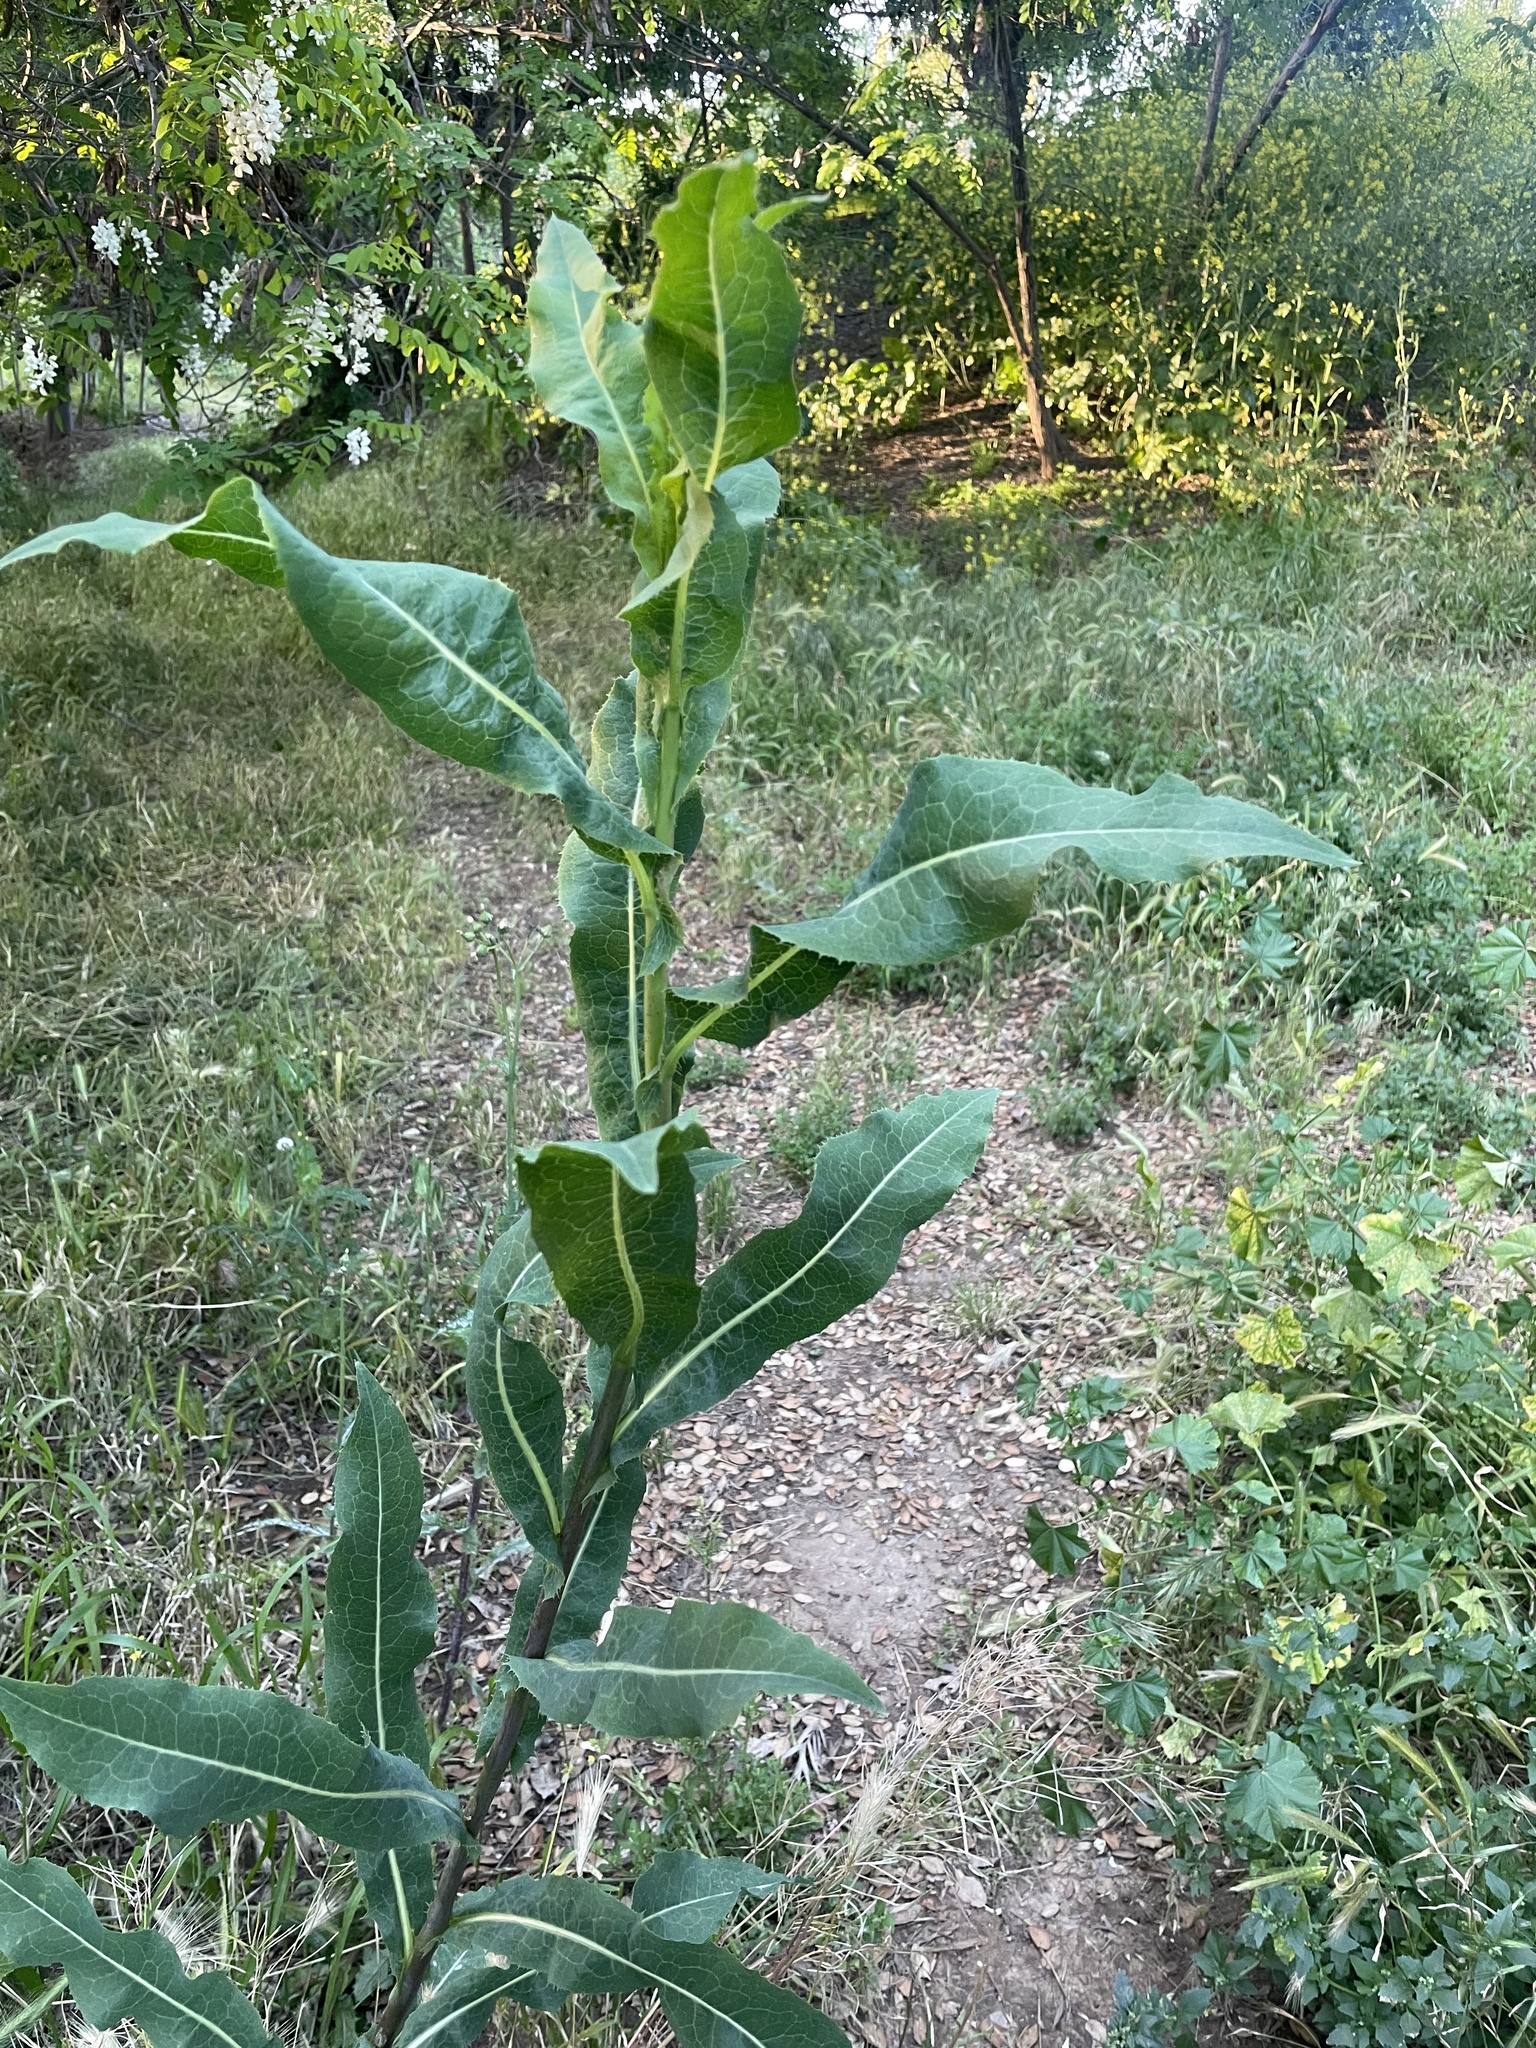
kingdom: Plantae
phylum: Tracheophyta
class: Magnoliopsida
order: Asterales
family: Asteraceae
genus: Lactuca
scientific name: Lactuca serriola
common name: Prickly lettuce
